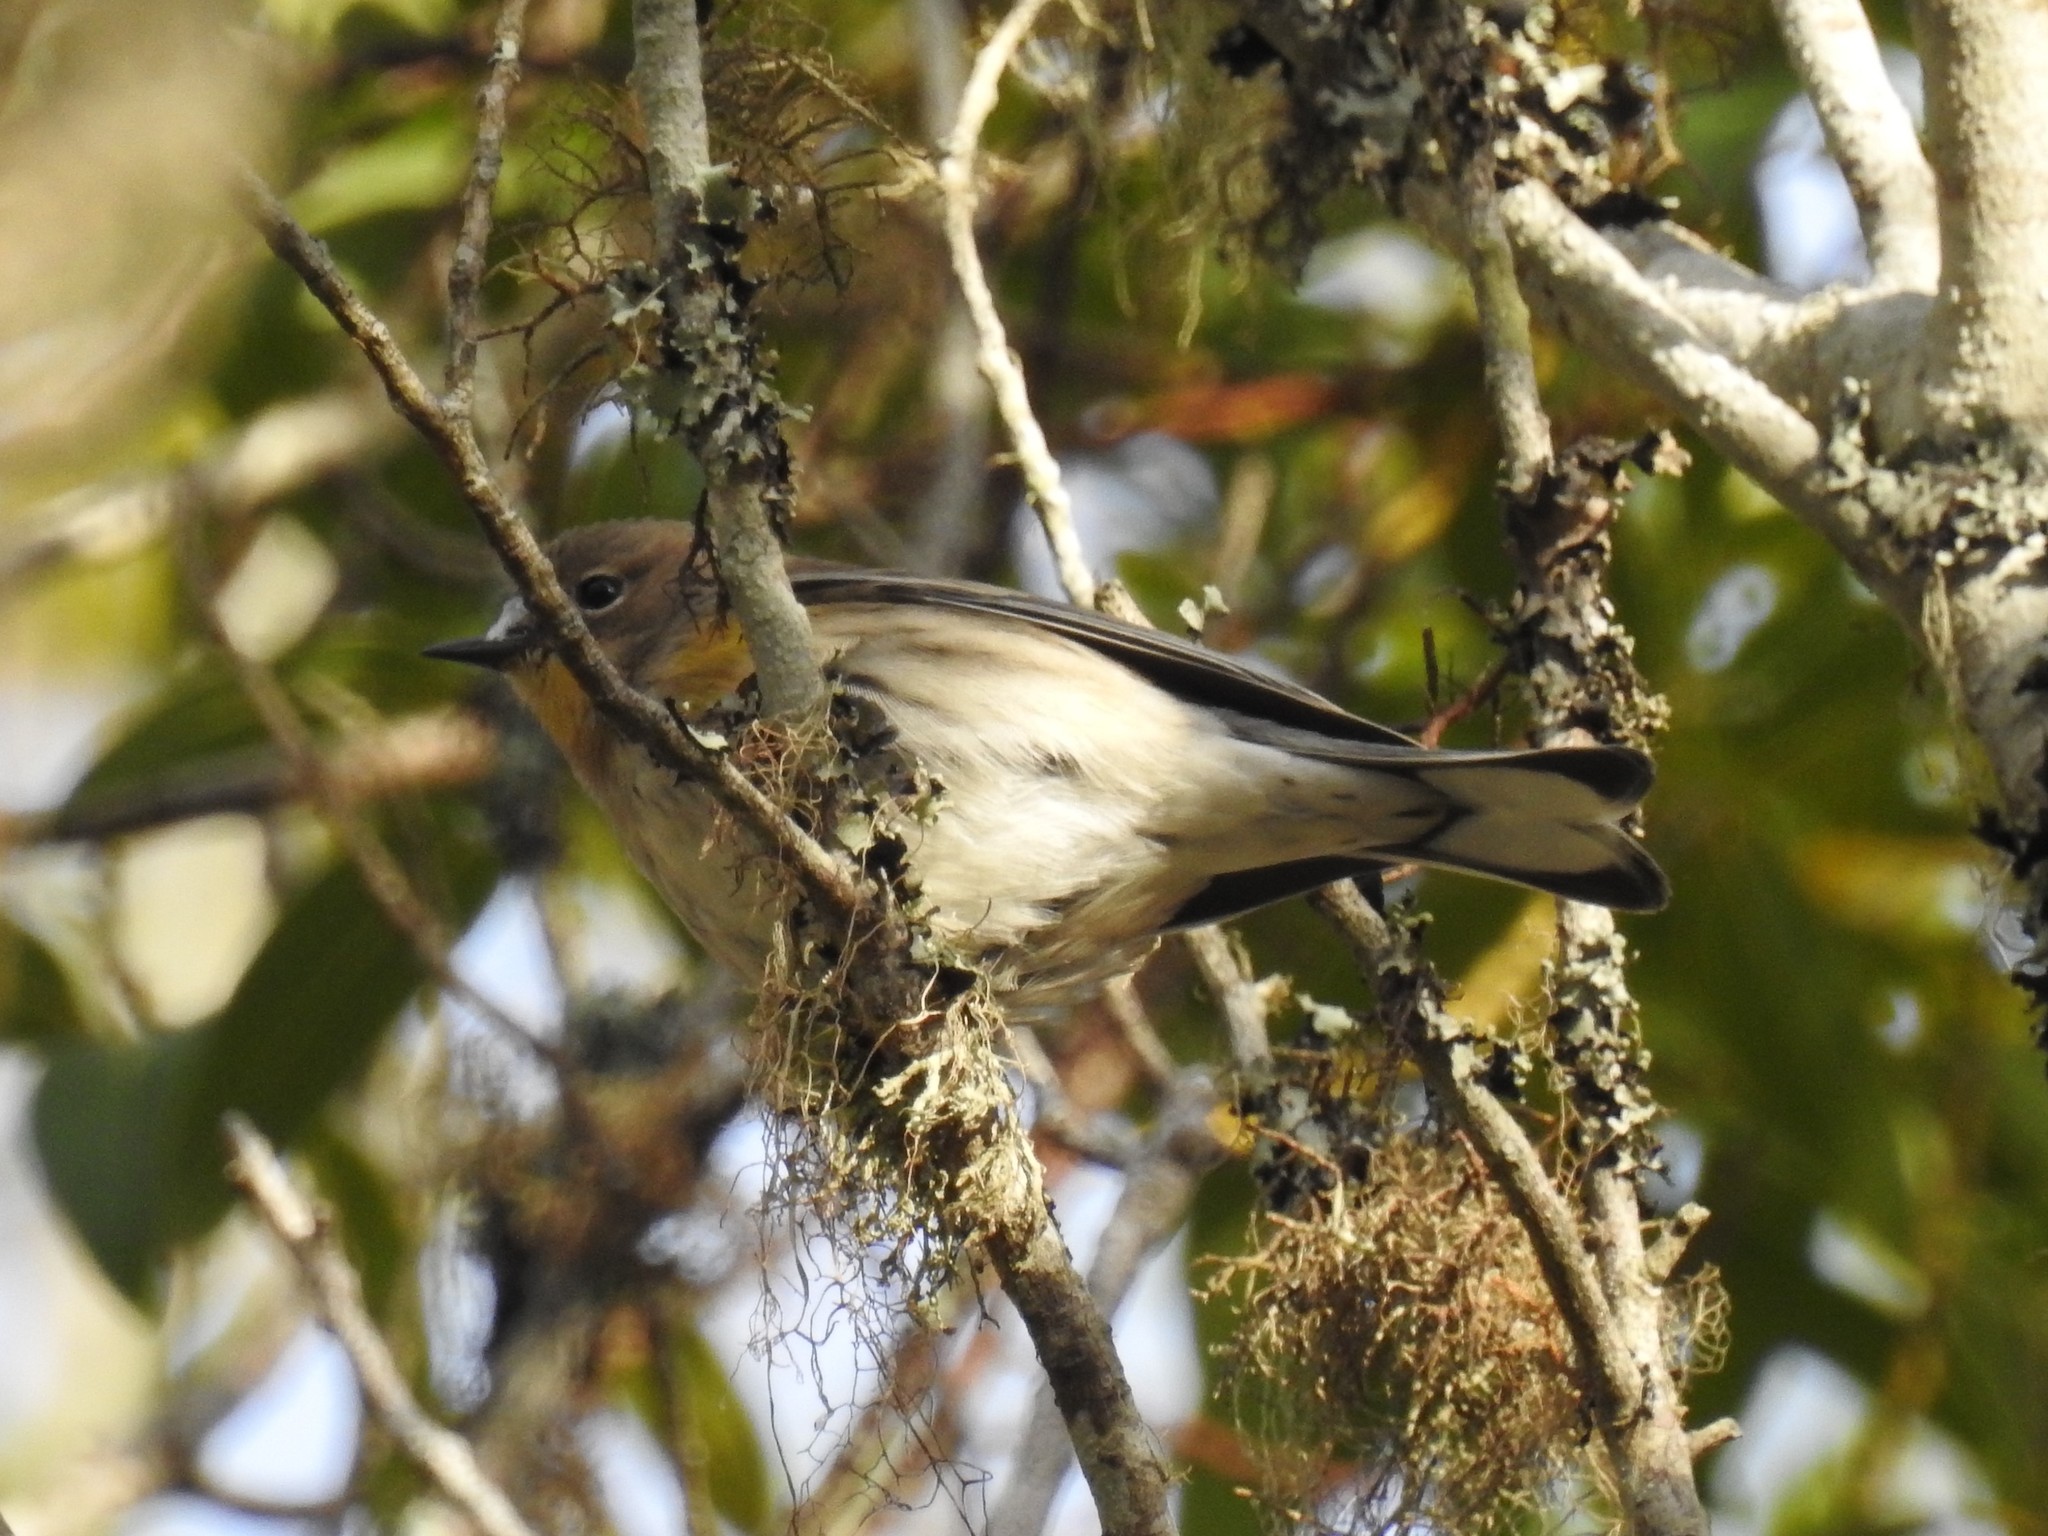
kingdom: Animalia
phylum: Chordata
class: Aves
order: Passeriformes
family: Parulidae
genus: Setophaga
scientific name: Setophaga coronata
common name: Myrtle warbler
